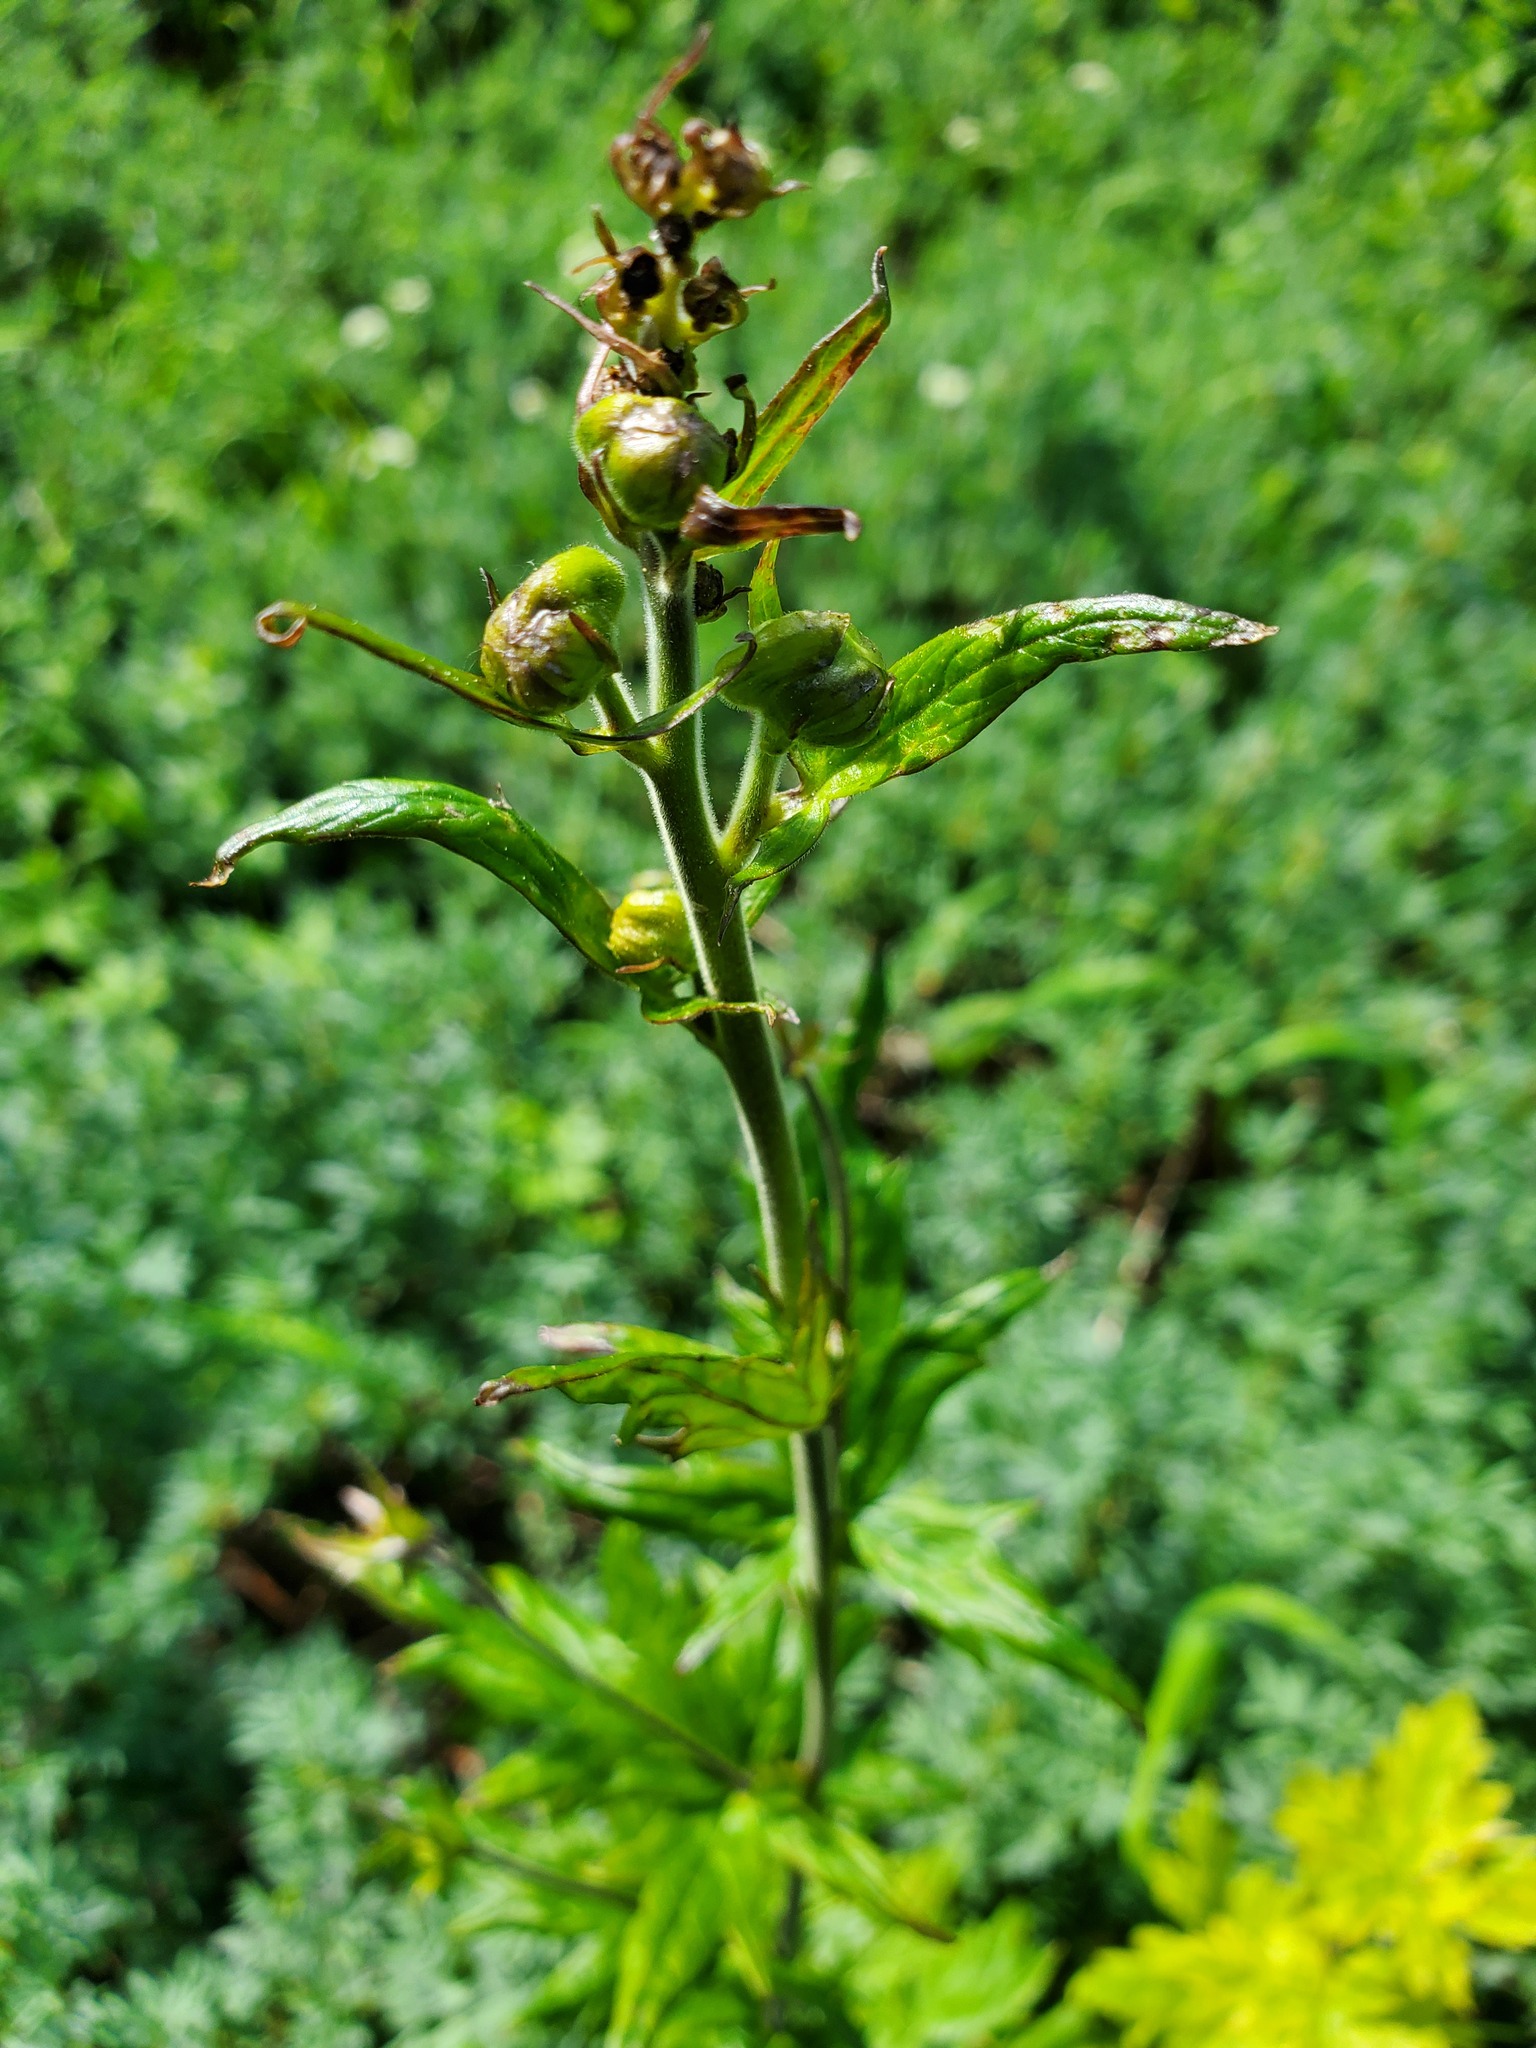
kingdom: Plantae
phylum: Tracheophyta
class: Magnoliopsida
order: Ranunculales
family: Ranunculaceae
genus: Aconitum
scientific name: Aconitum columbianum
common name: Columbia aconite
